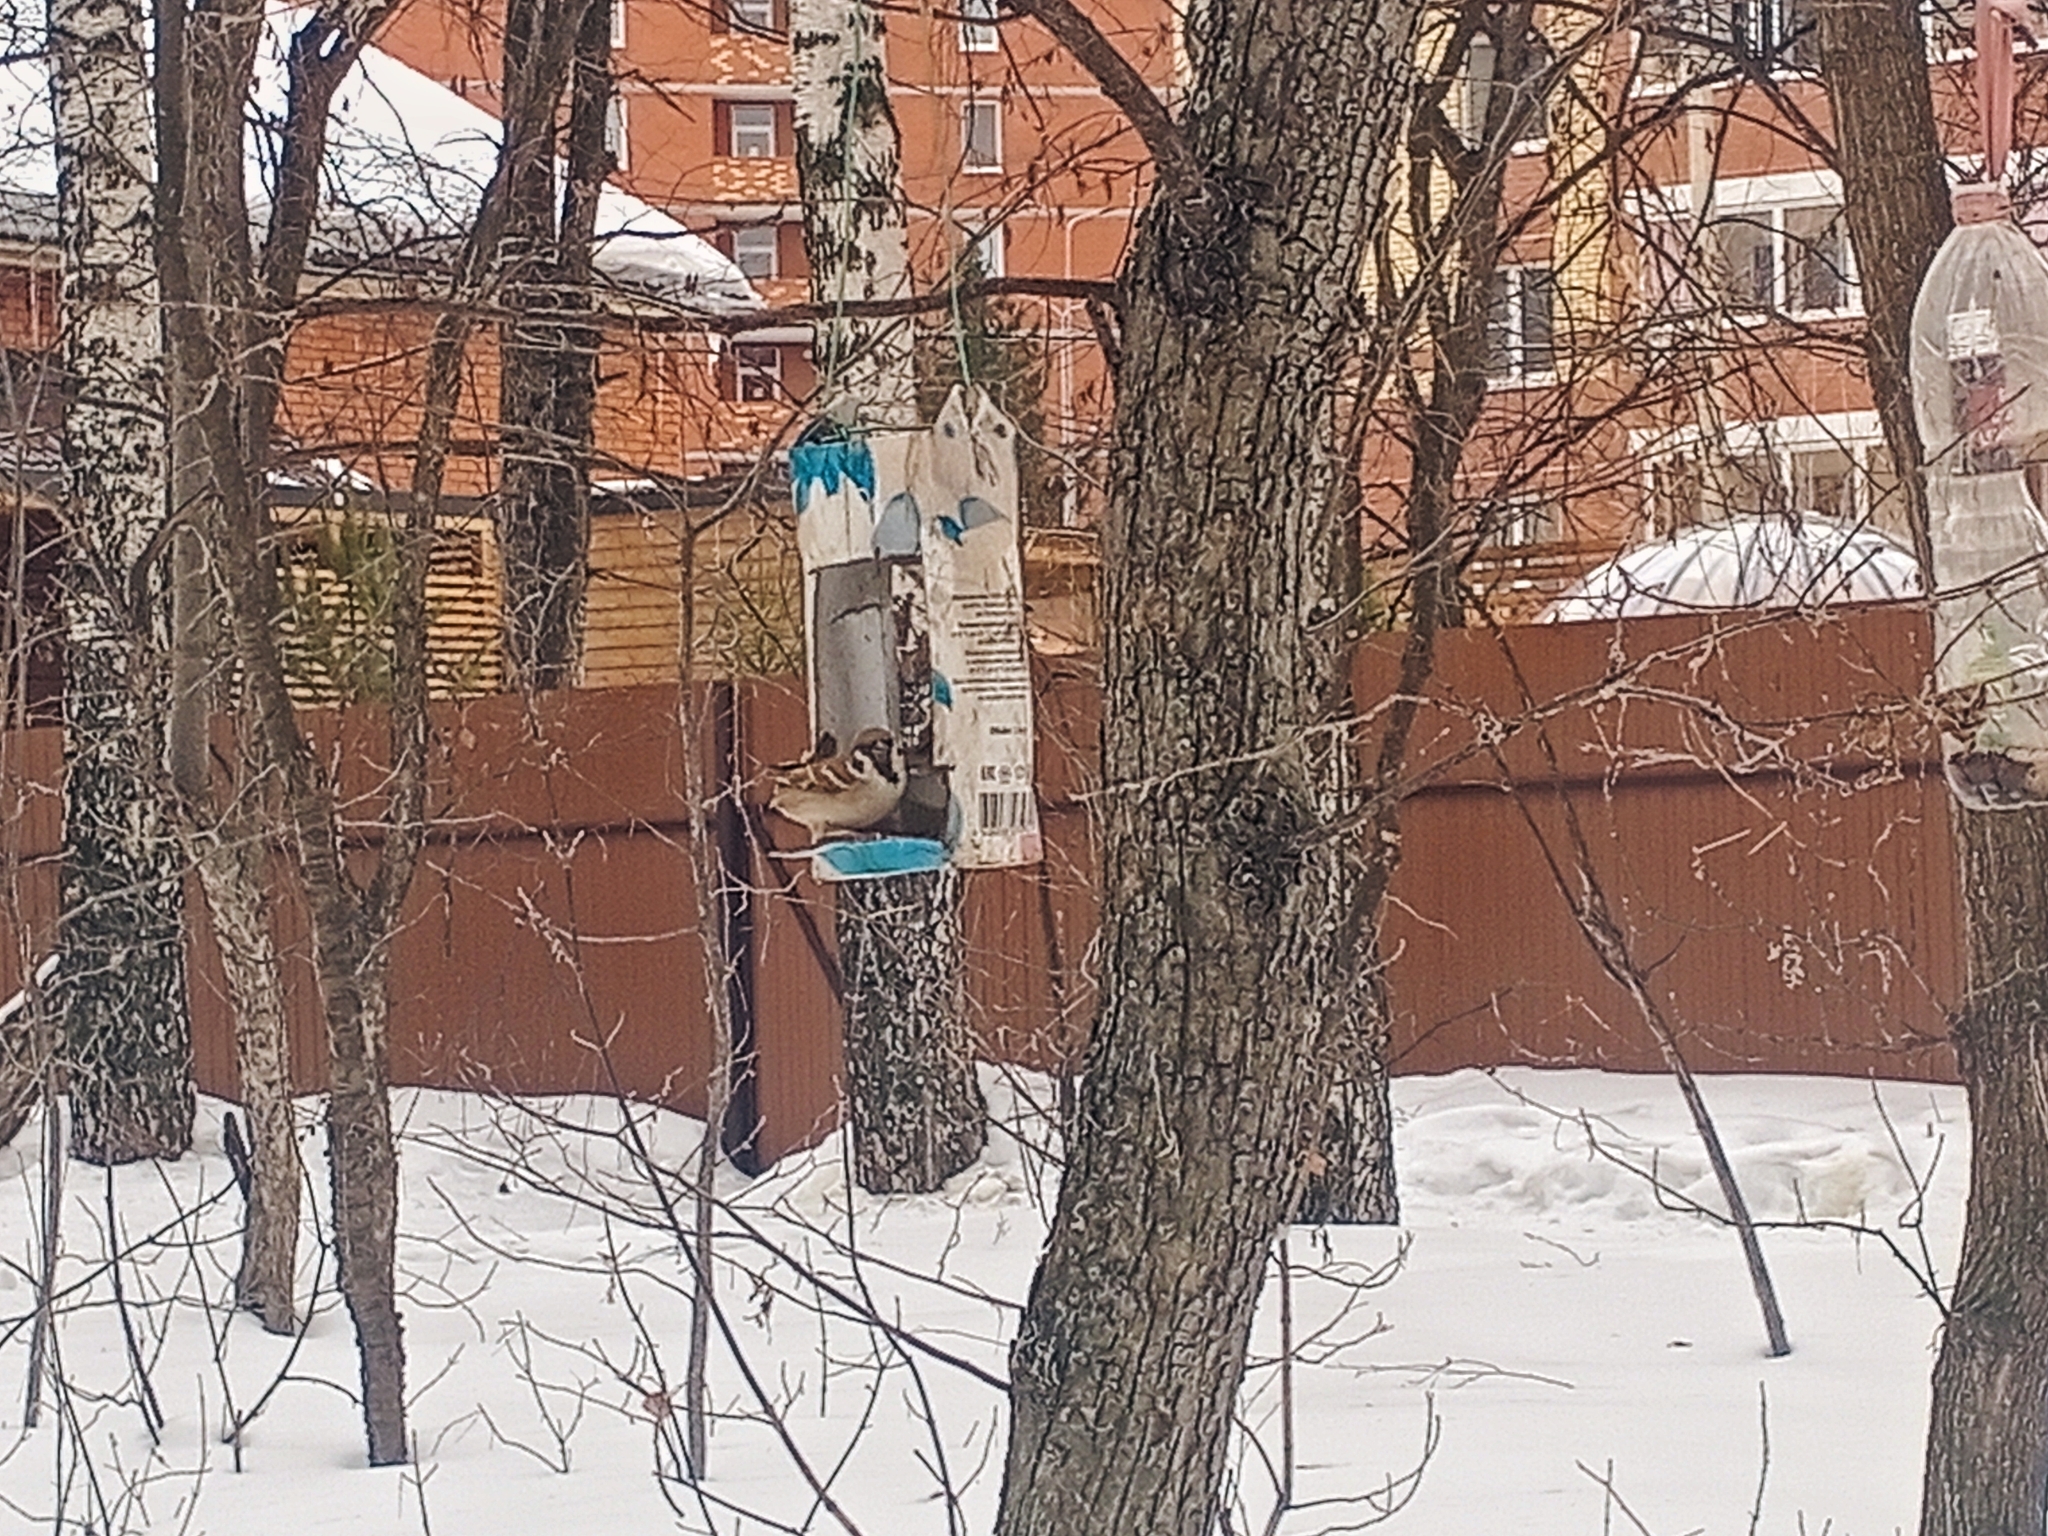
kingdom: Animalia
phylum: Chordata
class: Aves
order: Passeriformes
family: Passeridae
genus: Passer
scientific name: Passer montanus
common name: Eurasian tree sparrow
